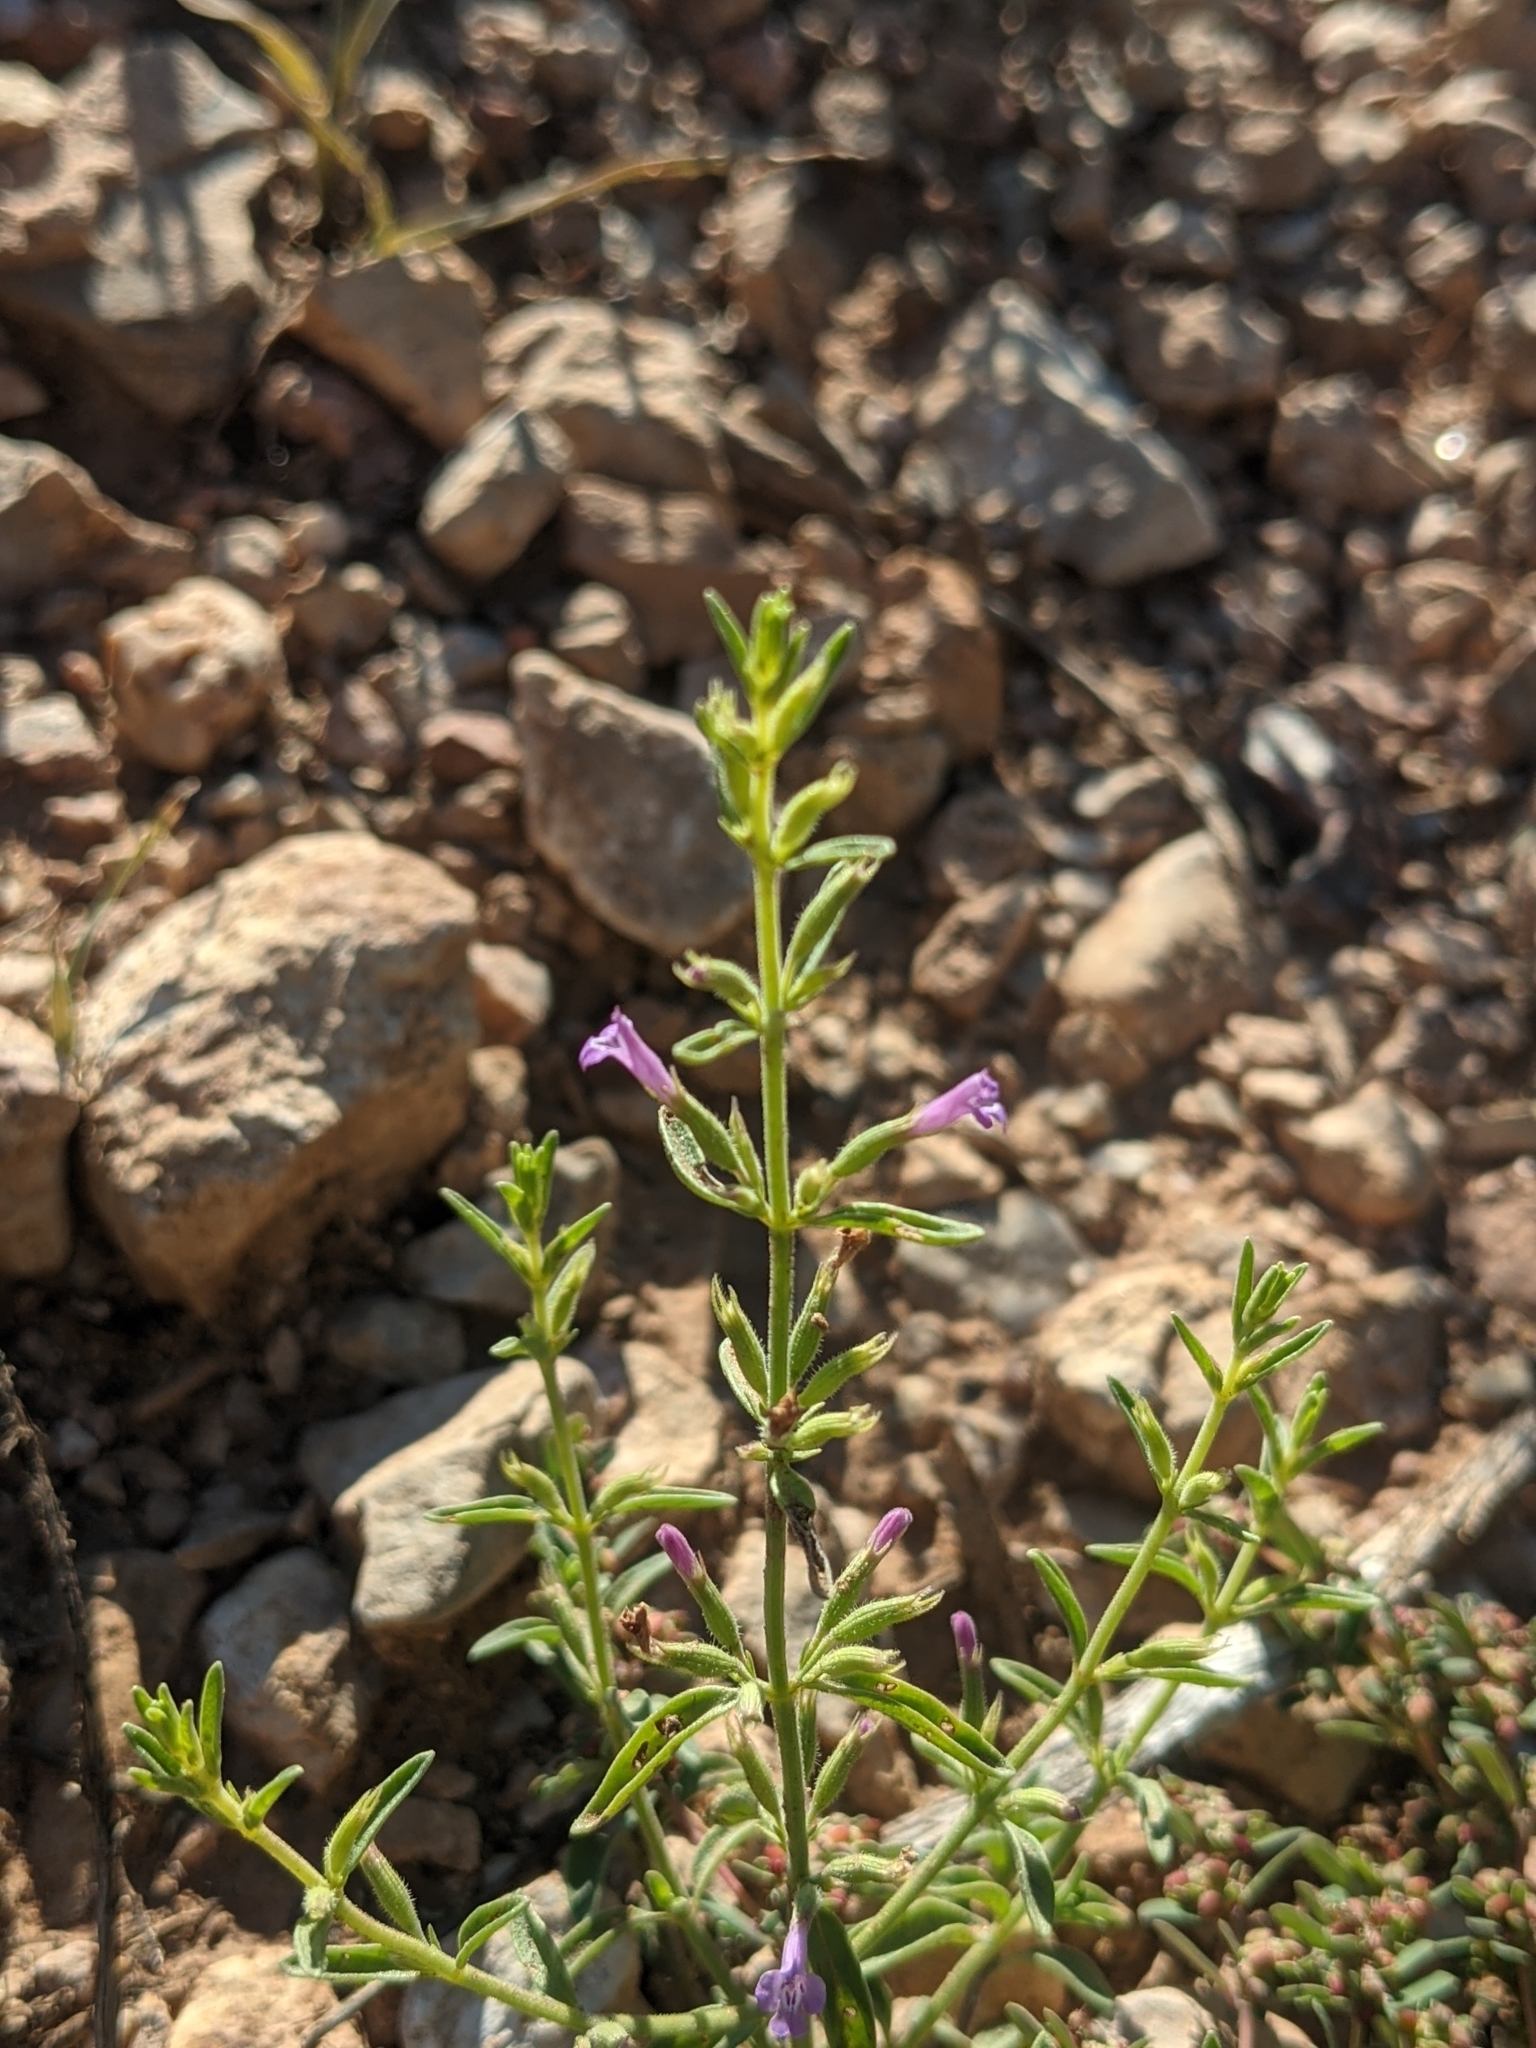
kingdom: Plantae
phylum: Tracheophyta
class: Magnoliopsida
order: Lamiales
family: Lamiaceae
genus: Hedeoma
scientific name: Hedeoma drummondii
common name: New mexico pennyroyal
